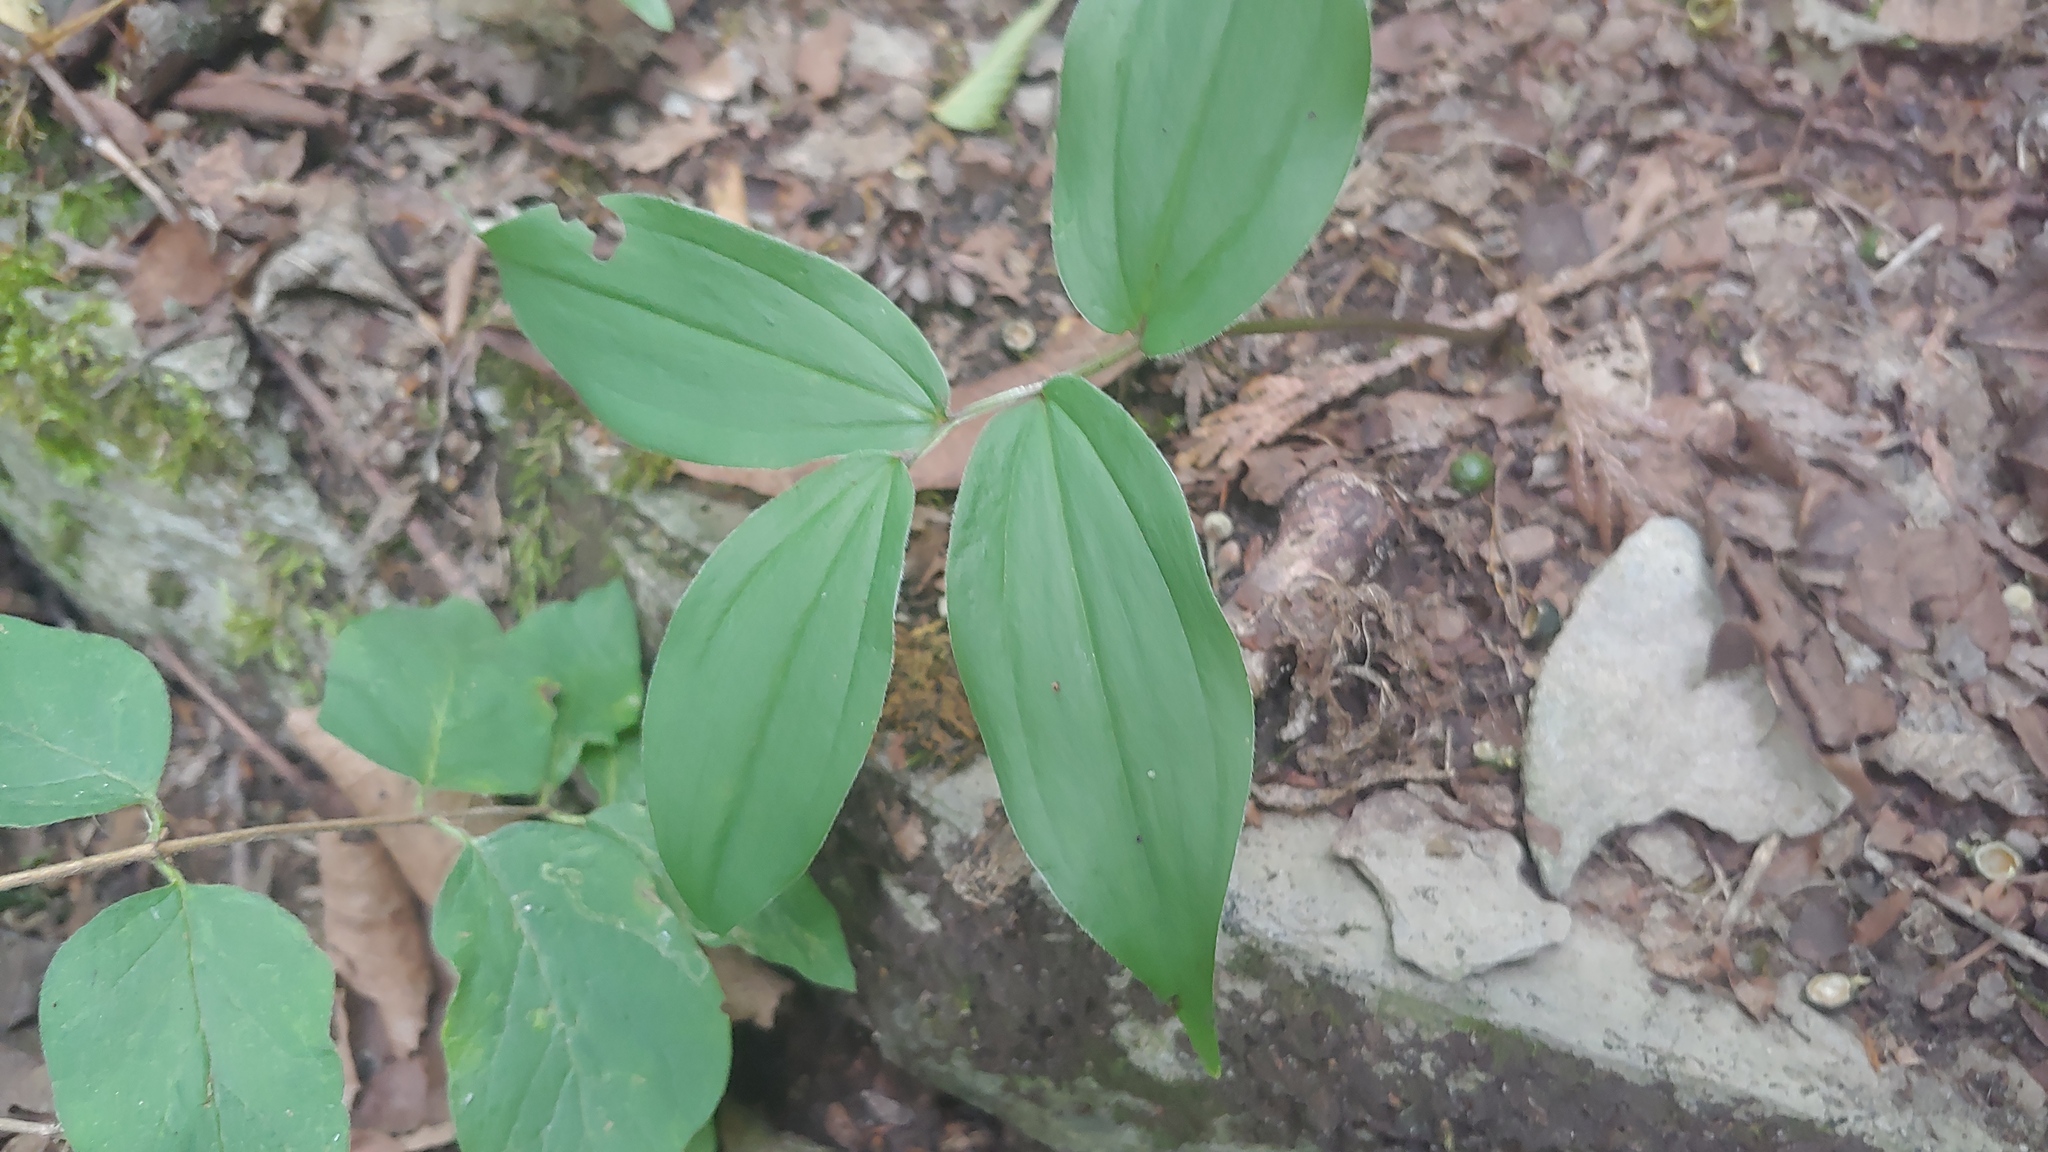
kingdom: Plantae
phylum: Tracheophyta
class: Liliopsida
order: Asparagales
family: Asparagaceae
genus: Maianthemum
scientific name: Maianthemum racemosum
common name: False spikenard
